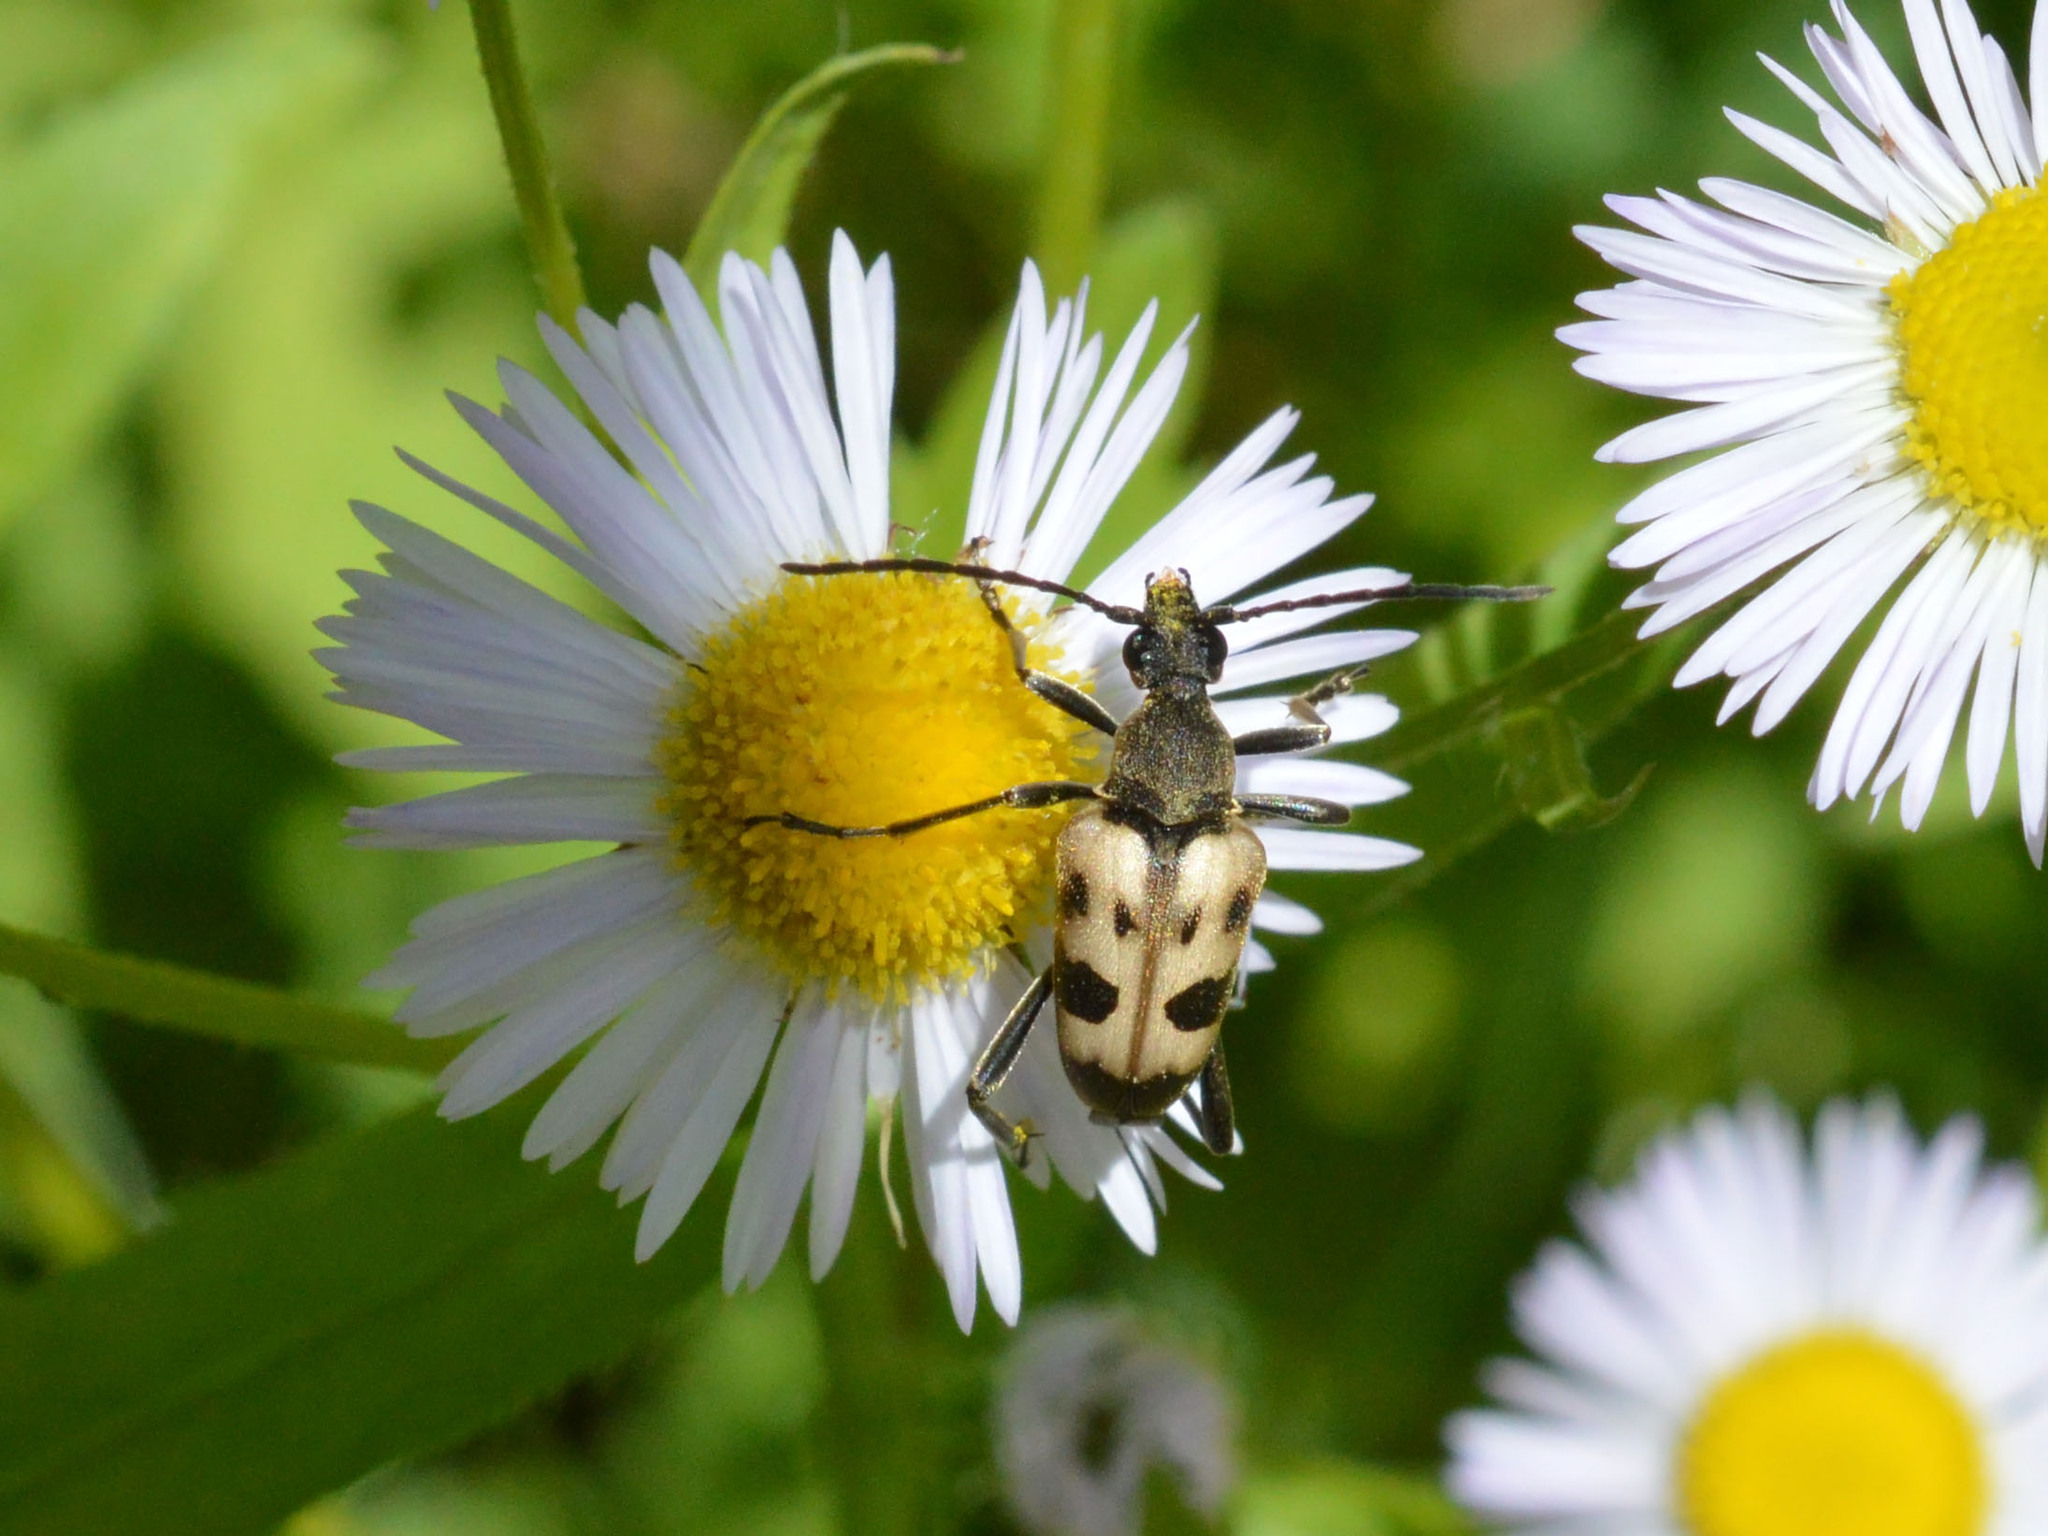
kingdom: Animalia
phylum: Arthropoda
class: Insecta
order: Coleoptera
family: Cerambycidae
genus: Pachytodes
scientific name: Pachytodes cerambyciformis
